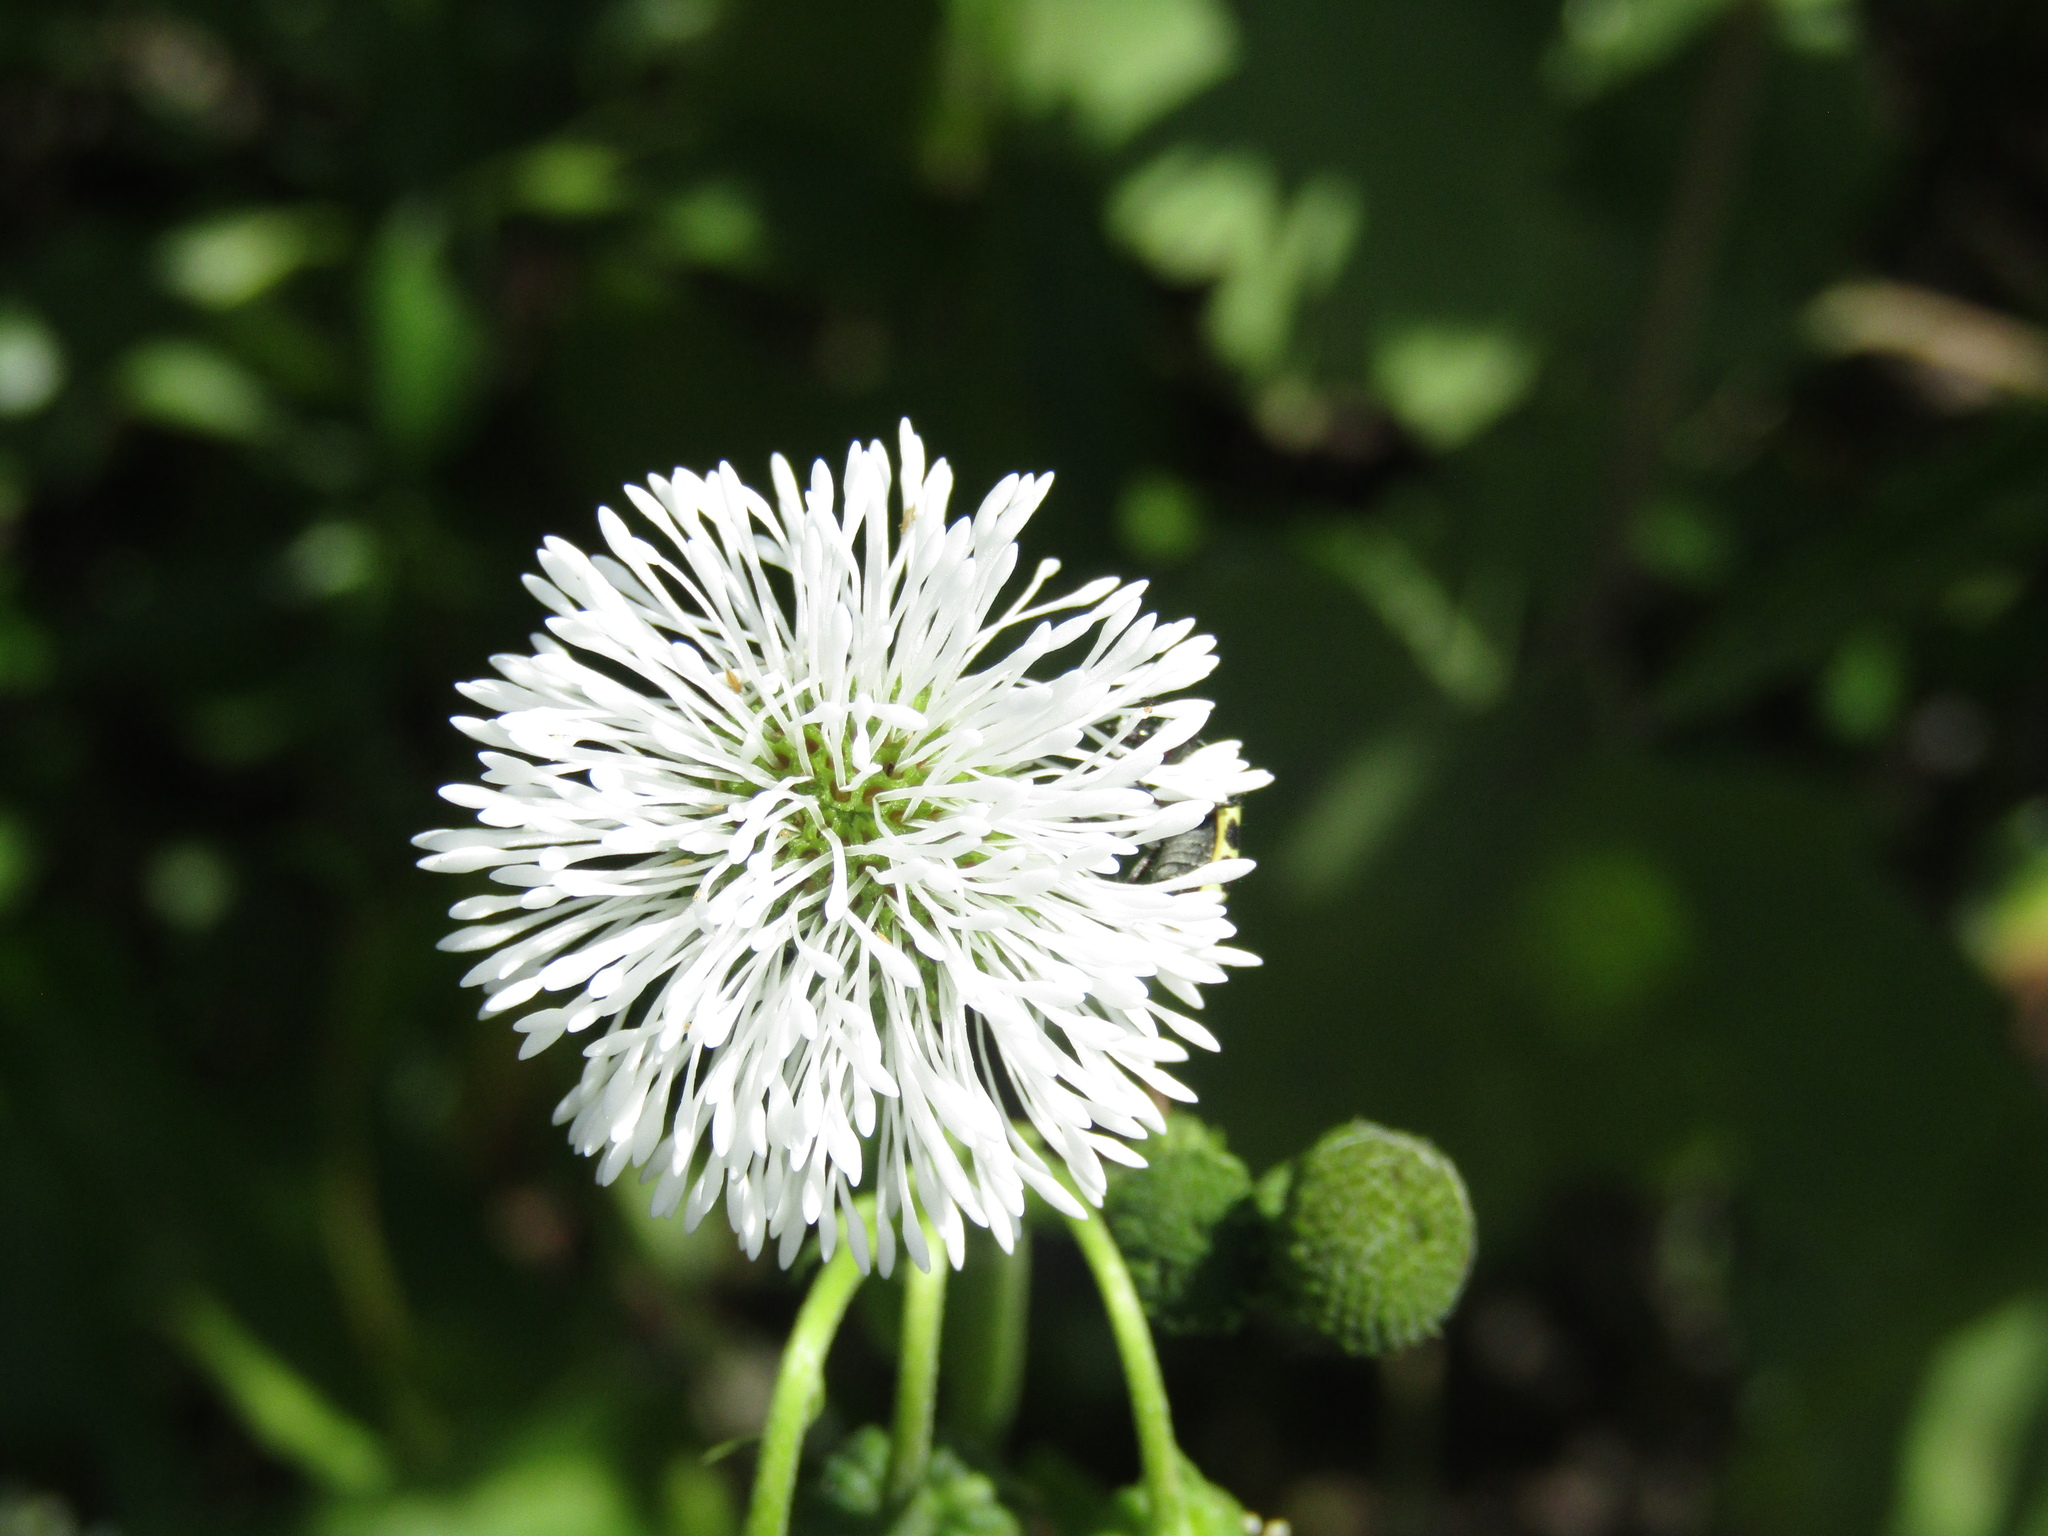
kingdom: Plantae
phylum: Tracheophyta
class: Magnoliopsida
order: Asterales
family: Asteraceae
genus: Gymnocoronis
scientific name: Gymnocoronis spilanthoides
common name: Senegal teaplant
